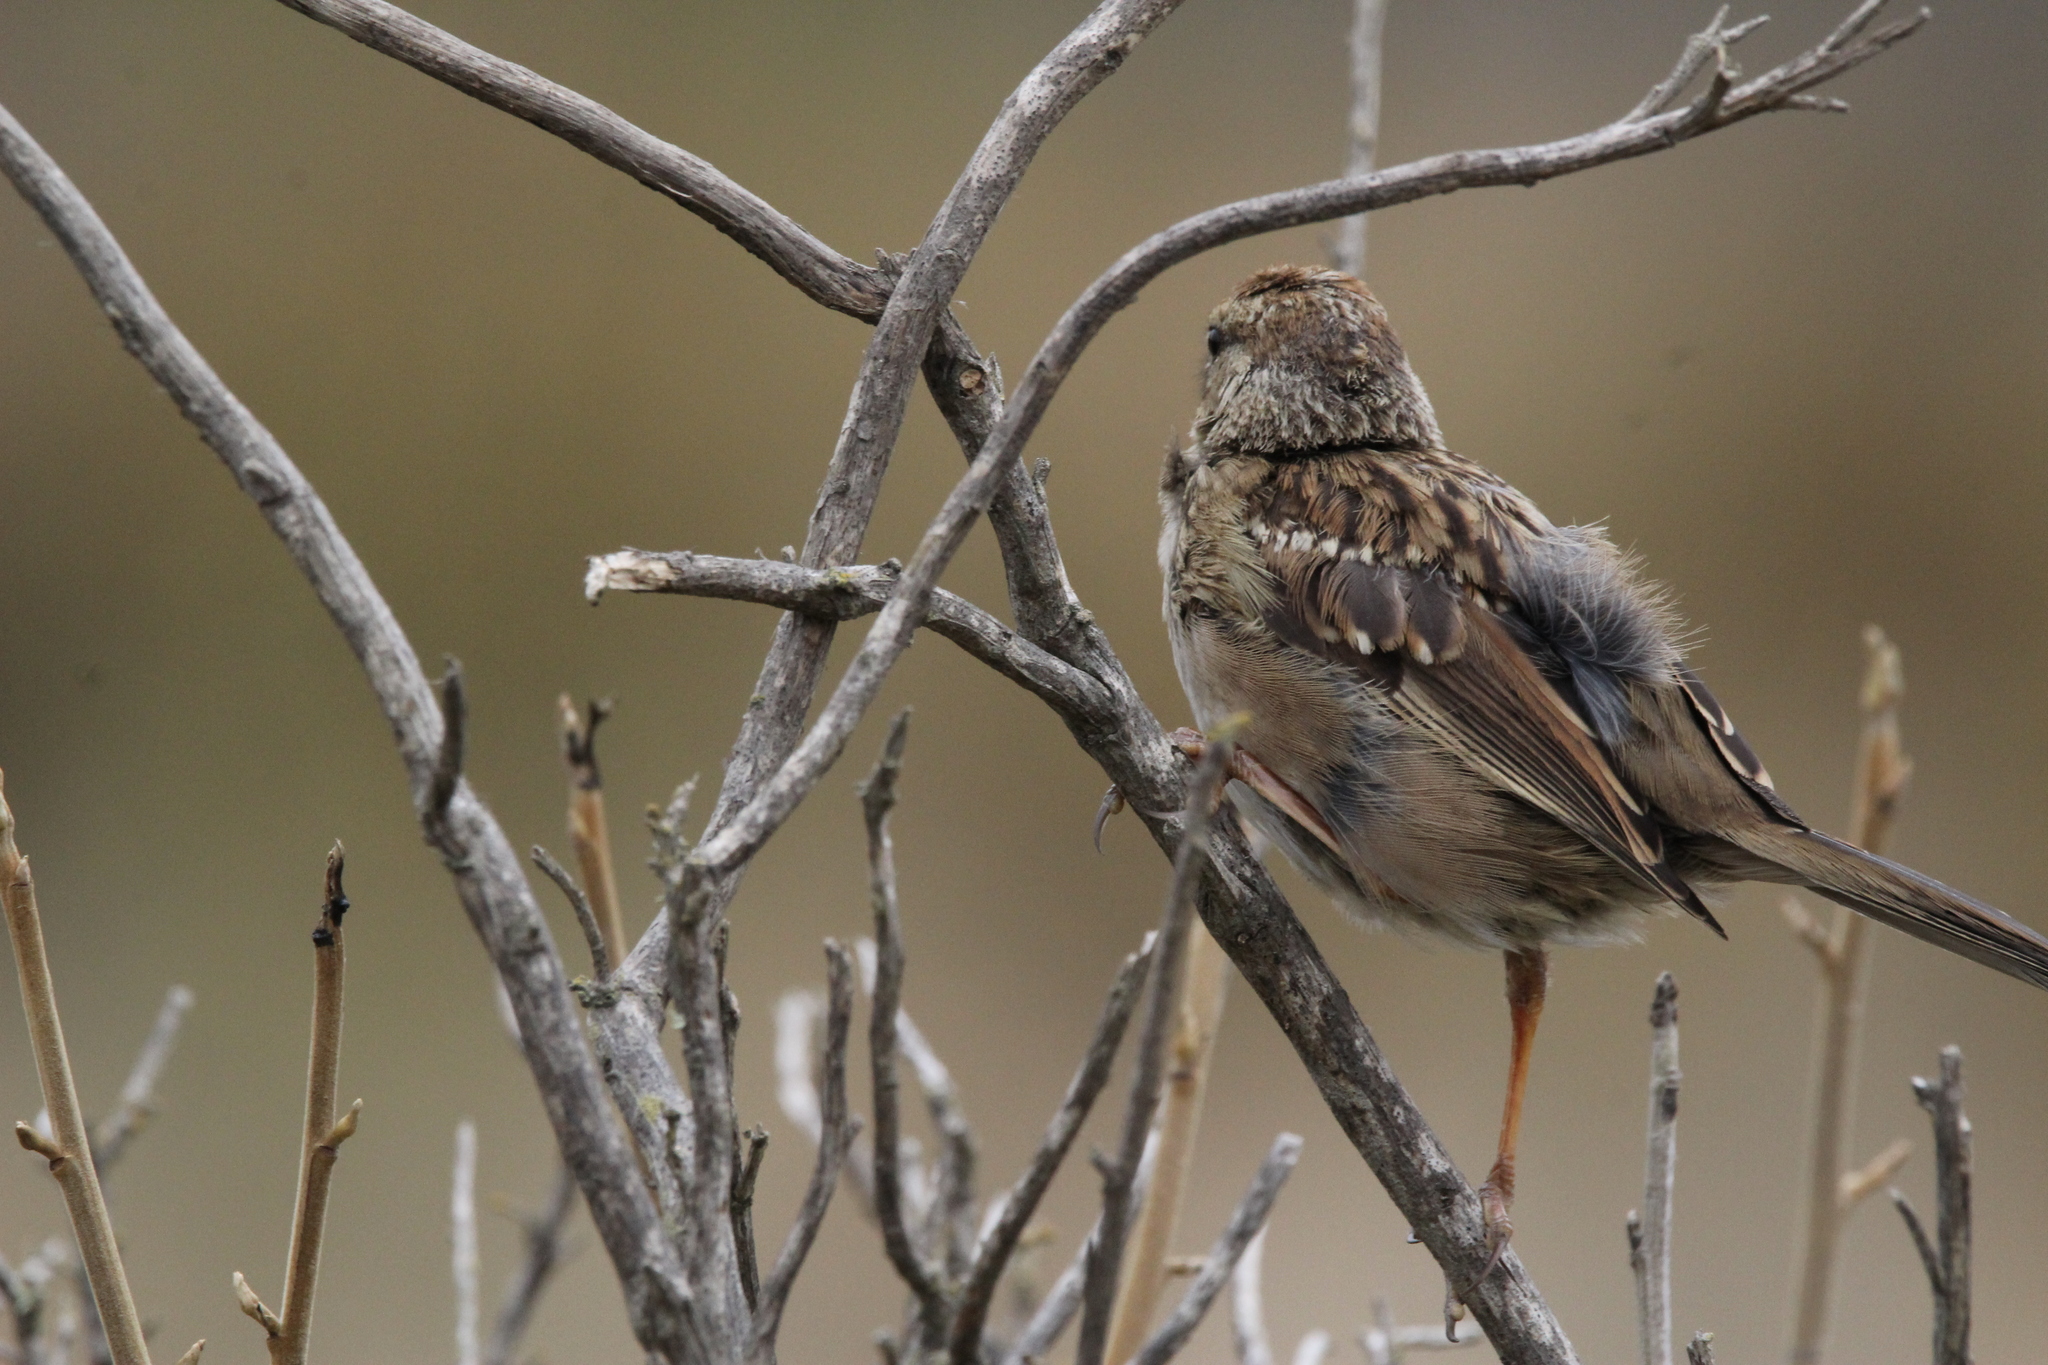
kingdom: Animalia
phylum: Chordata
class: Aves
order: Passeriformes
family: Passerellidae
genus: Zonotrichia
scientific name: Zonotrichia leucophrys
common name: White-crowned sparrow
